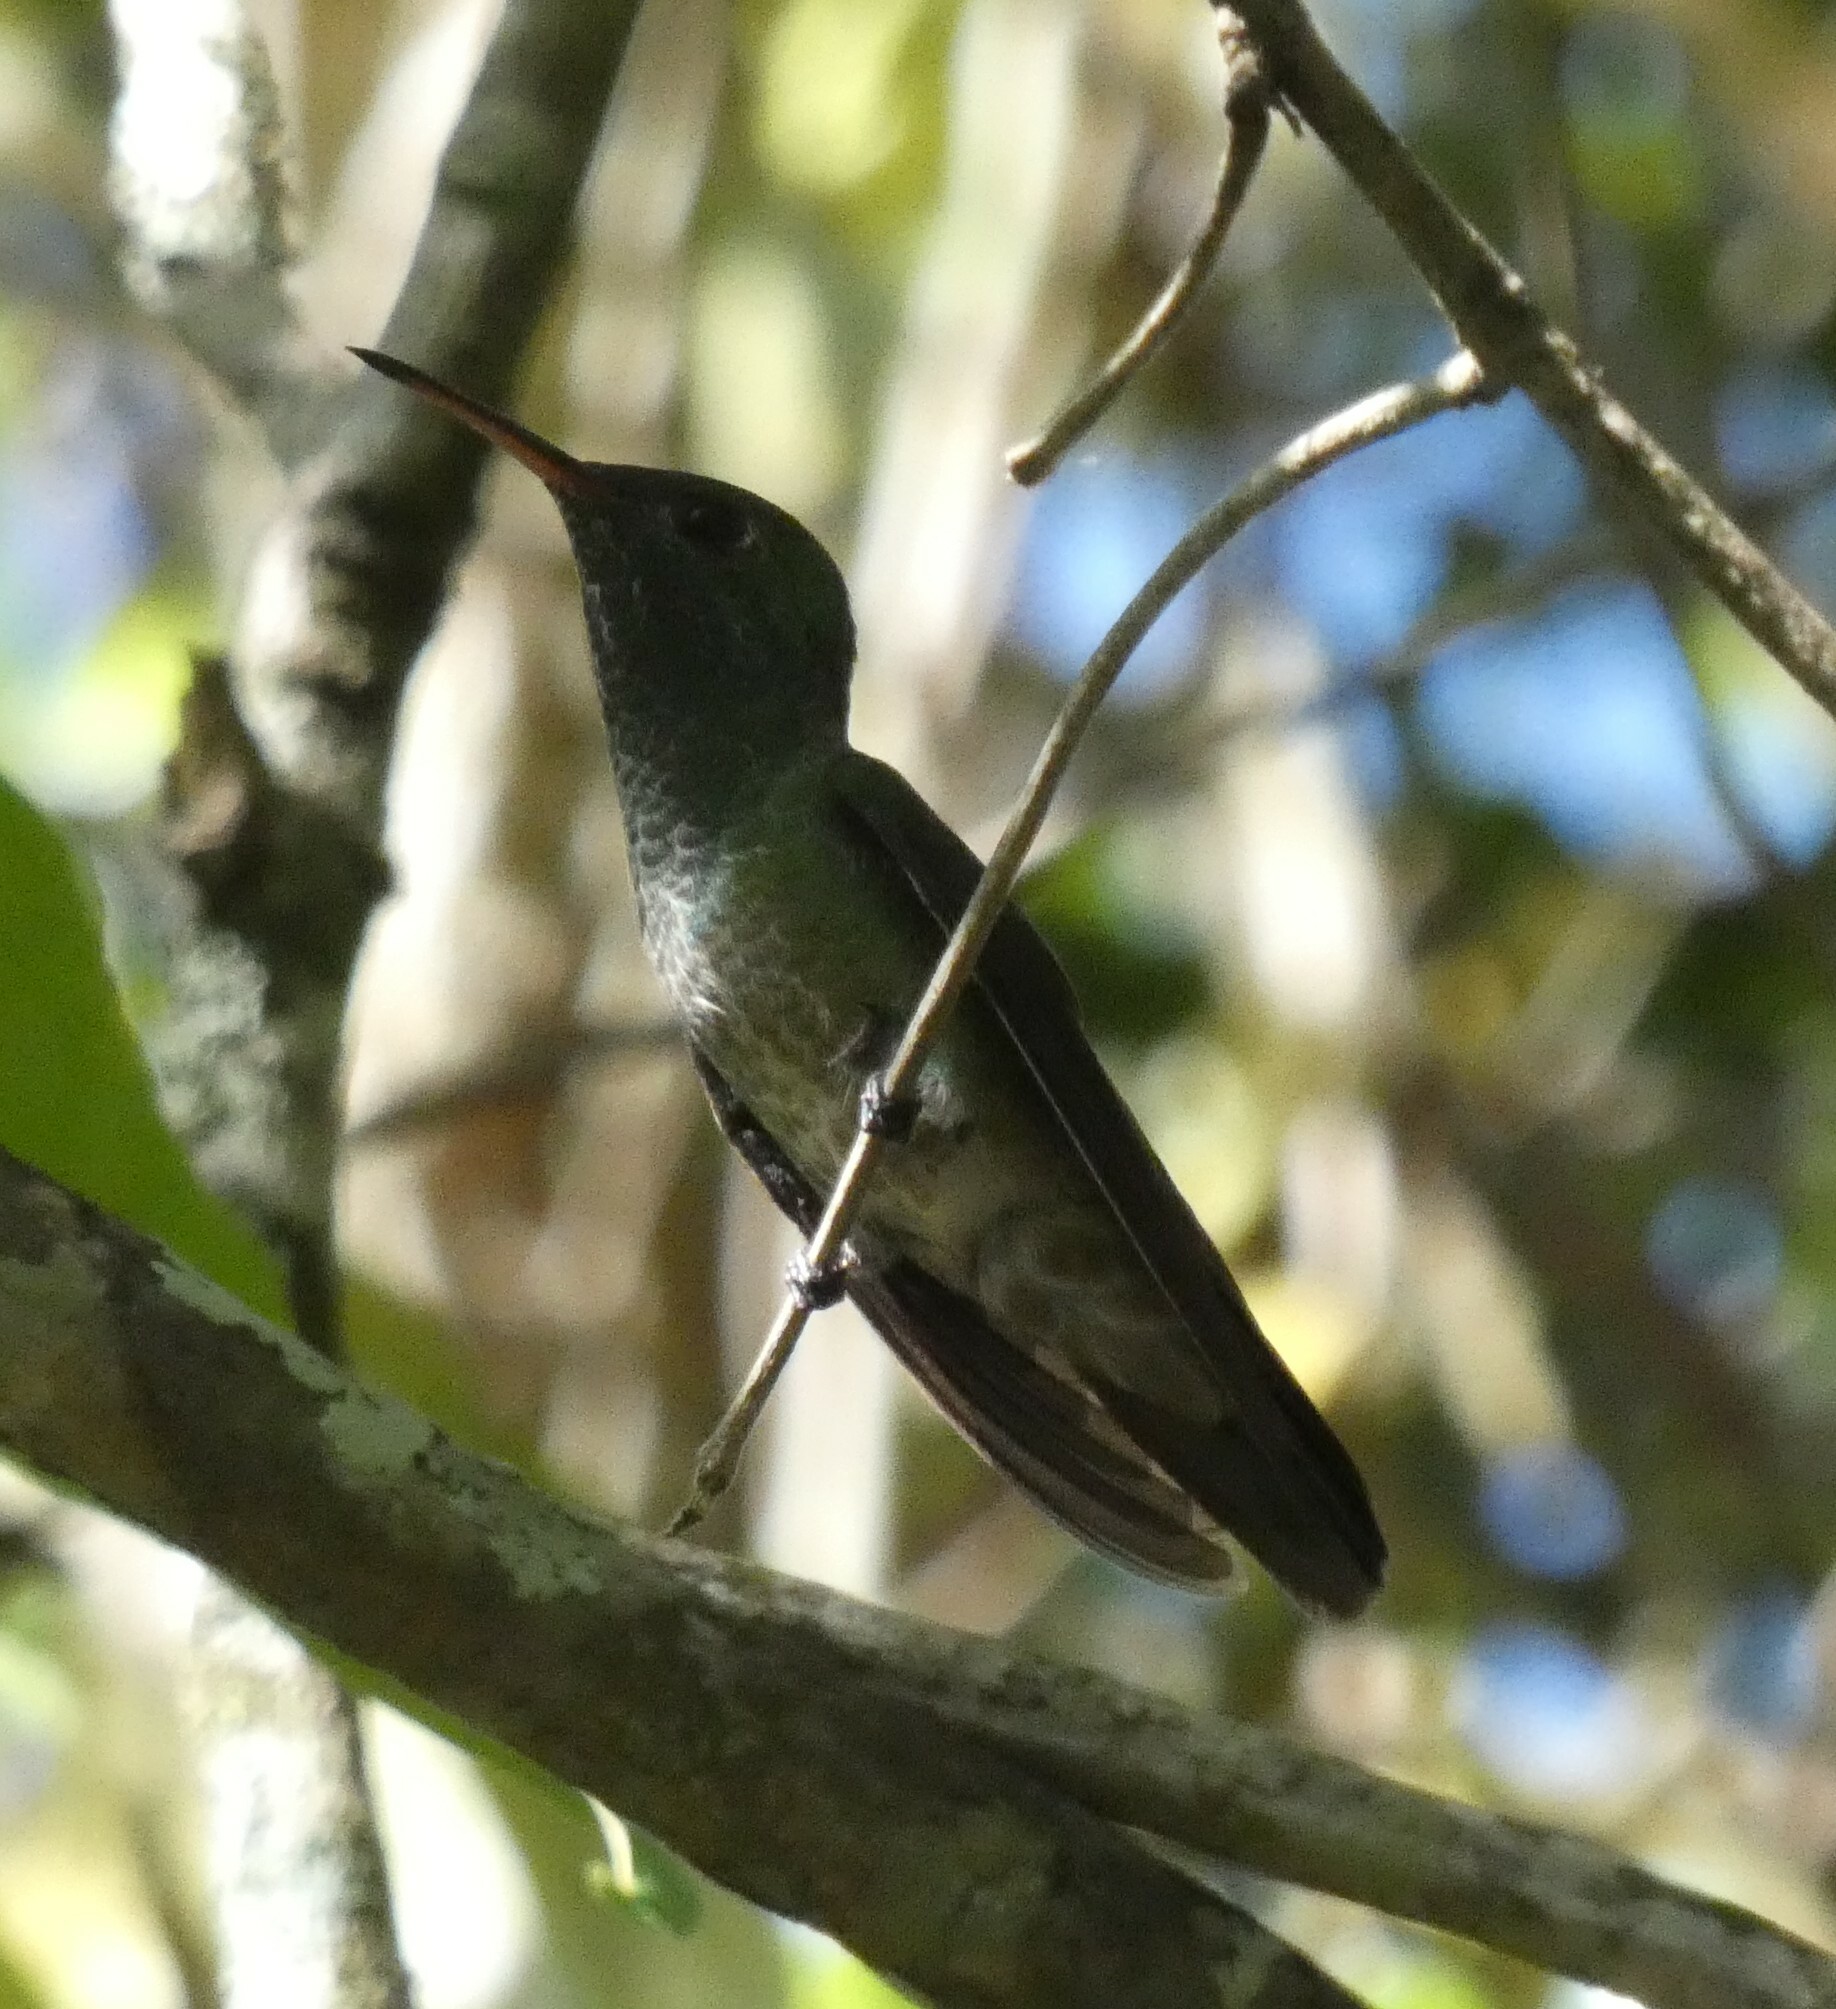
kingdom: Animalia
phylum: Chordata
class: Aves
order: Apodiformes
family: Trochilidae
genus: Chrysuronia
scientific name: Chrysuronia versicolor
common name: Versicolored emerald
